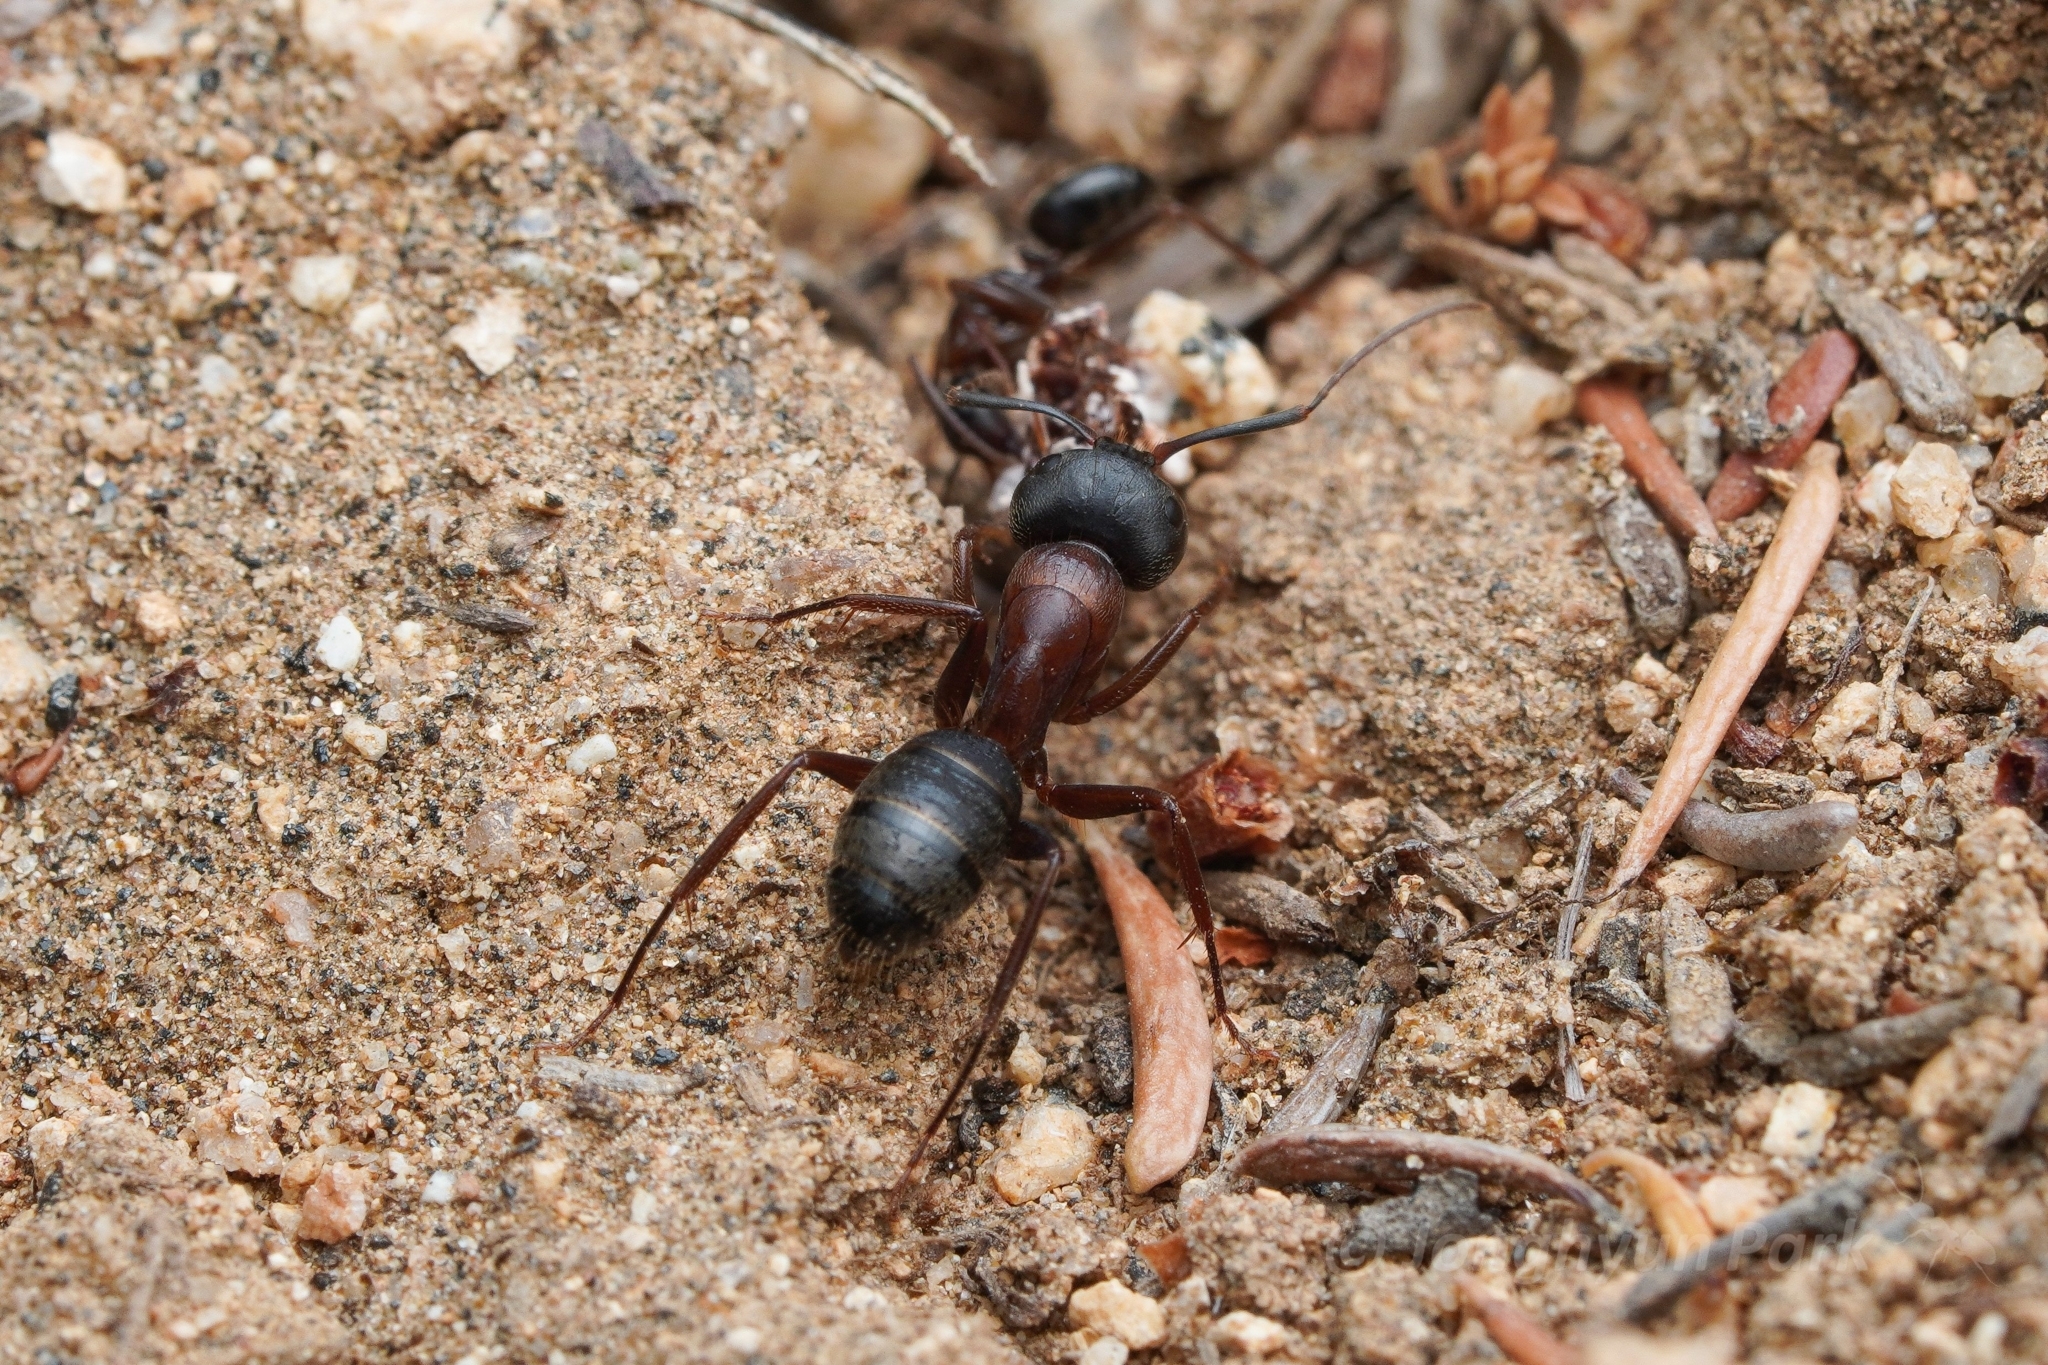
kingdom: Animalia
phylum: Arthropoda
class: Insecta
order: Hymenoptera
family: Formicidae
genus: Camponotus
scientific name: Camponotus dumetorum
